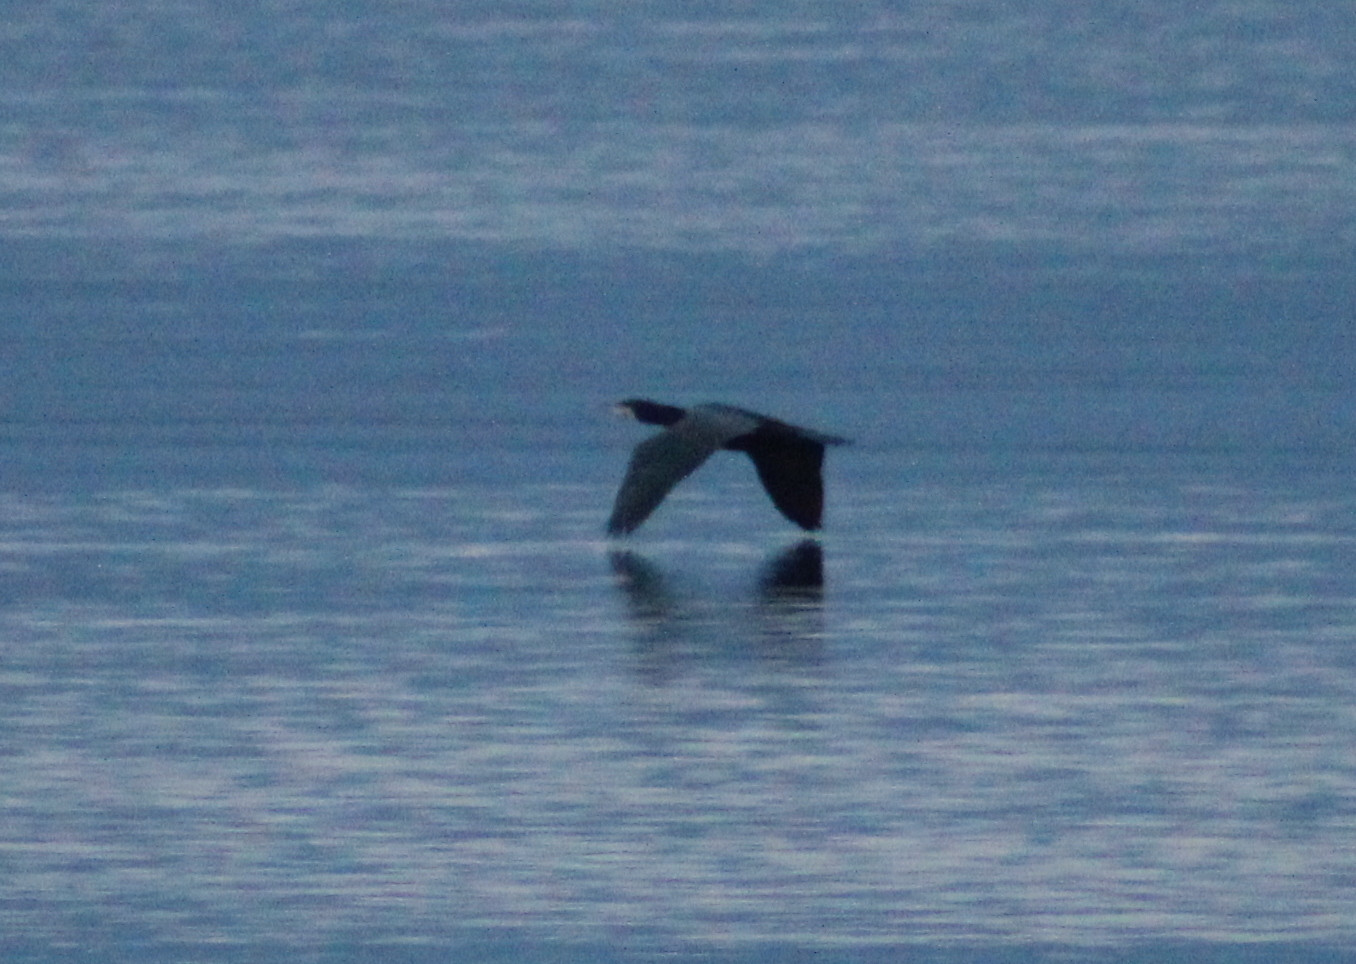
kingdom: Animalia
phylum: Chordata
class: Aves
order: Suliformes
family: Phalacrocoracidae
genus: Phalacrocorax
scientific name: Phalacrocorax carbo
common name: Great cormorant
